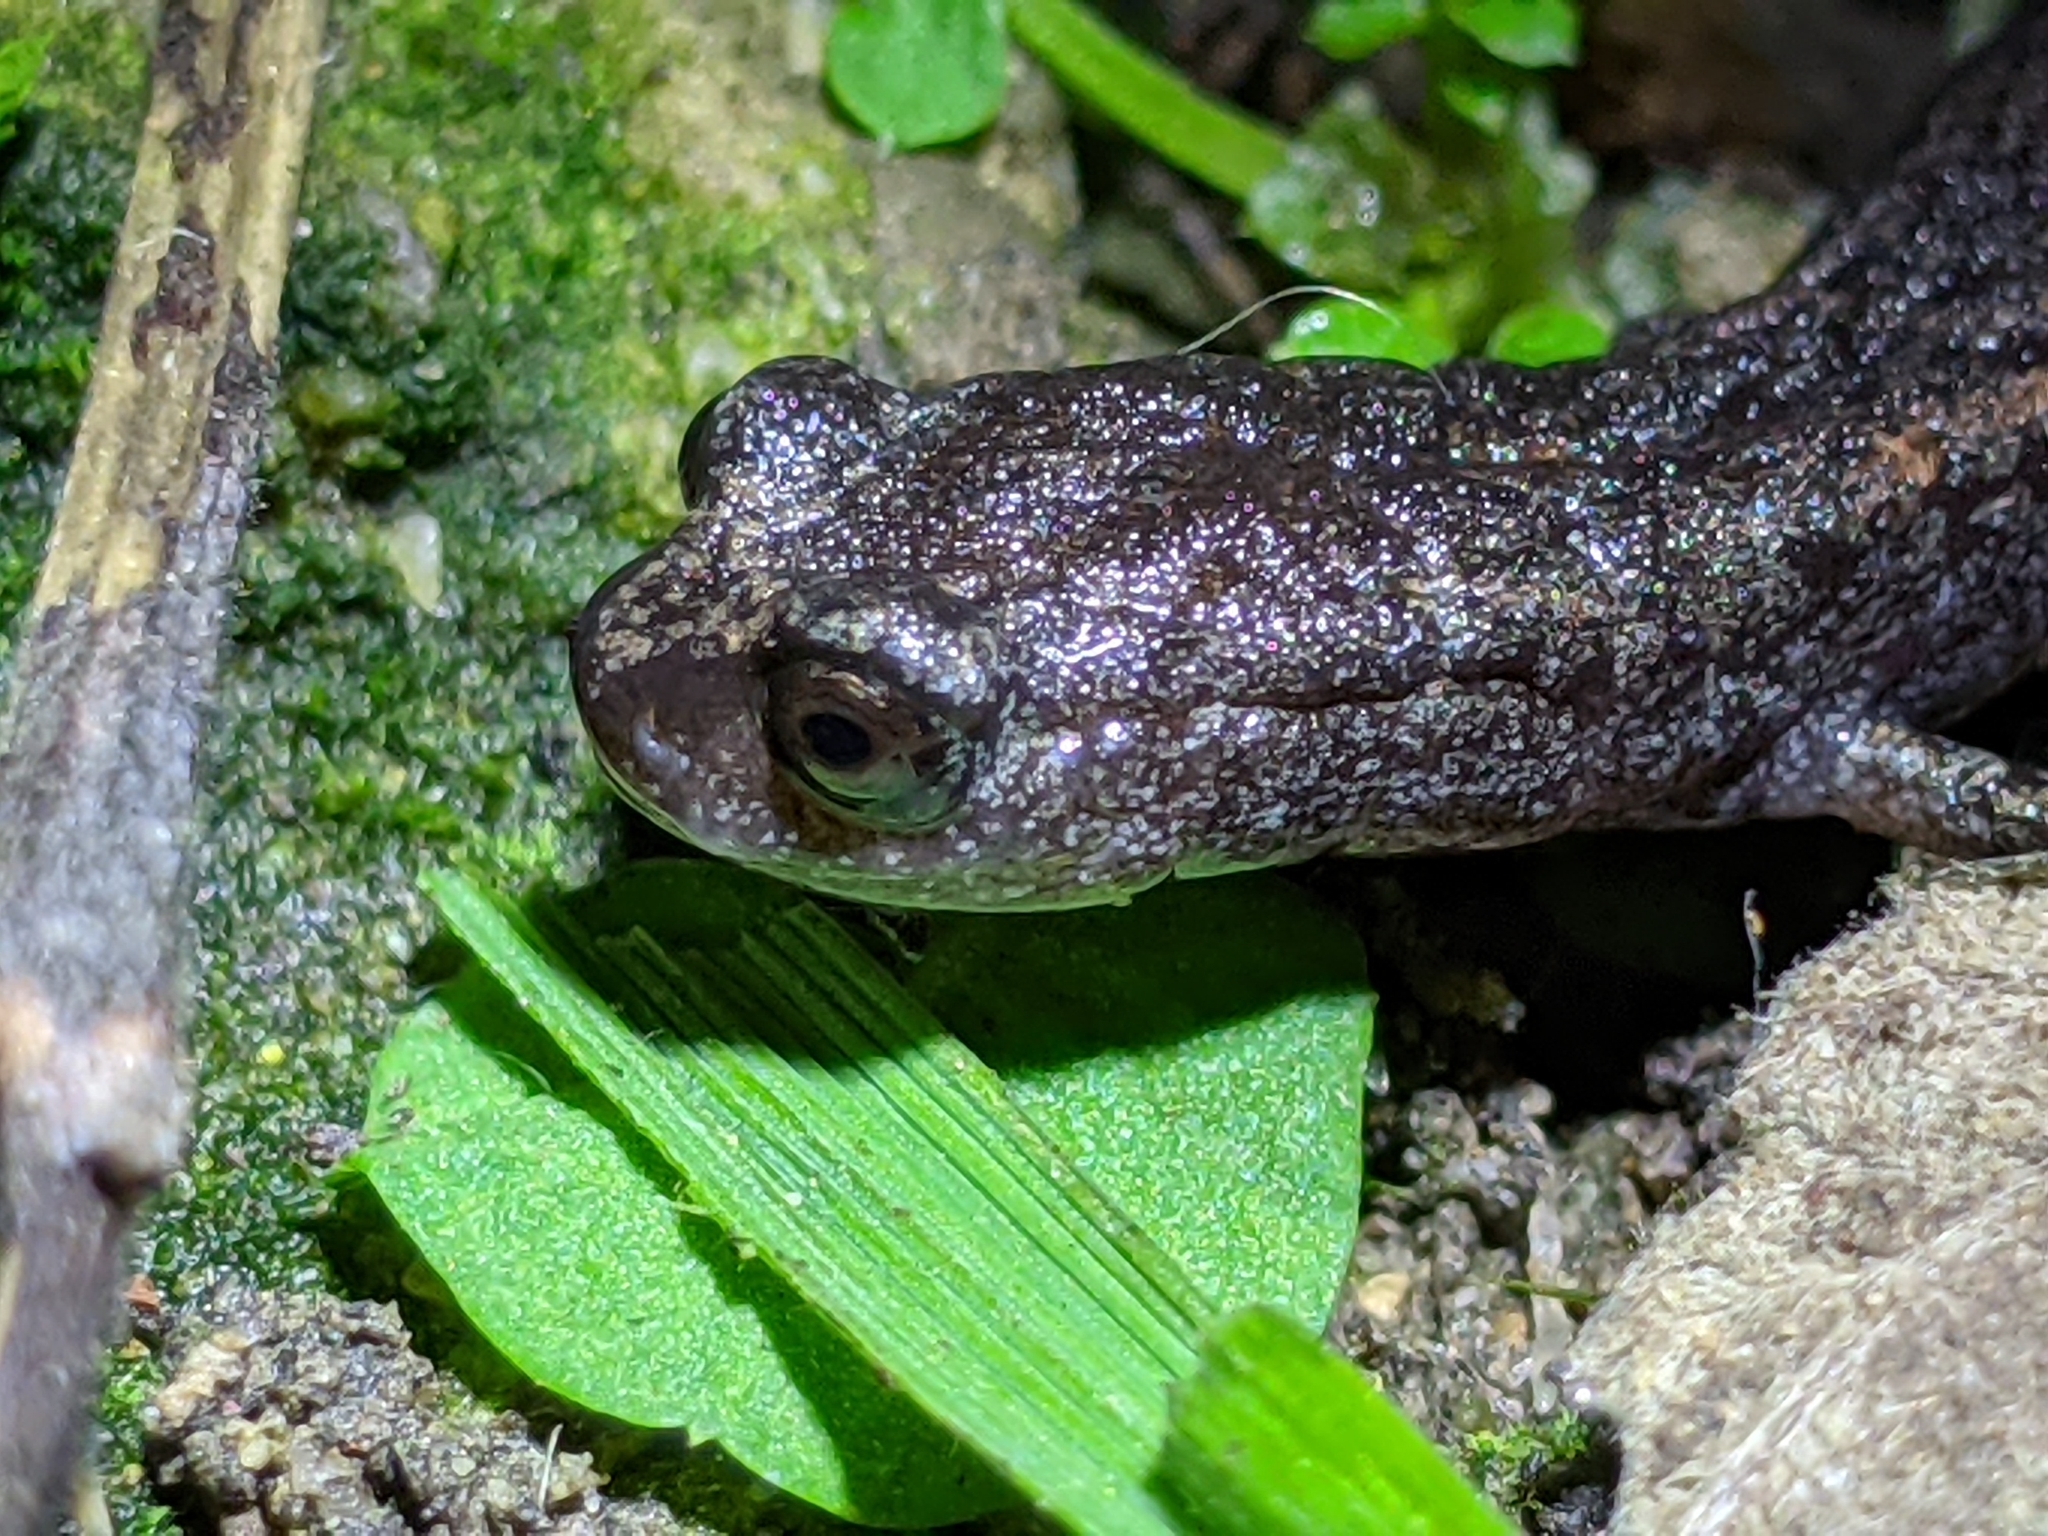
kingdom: Animalia
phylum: Chordata
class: Amphibia
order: Caudata
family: Plethodontidae
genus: Batrachoseps
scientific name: Batrachoseps attenuatus
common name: California slender salamander
